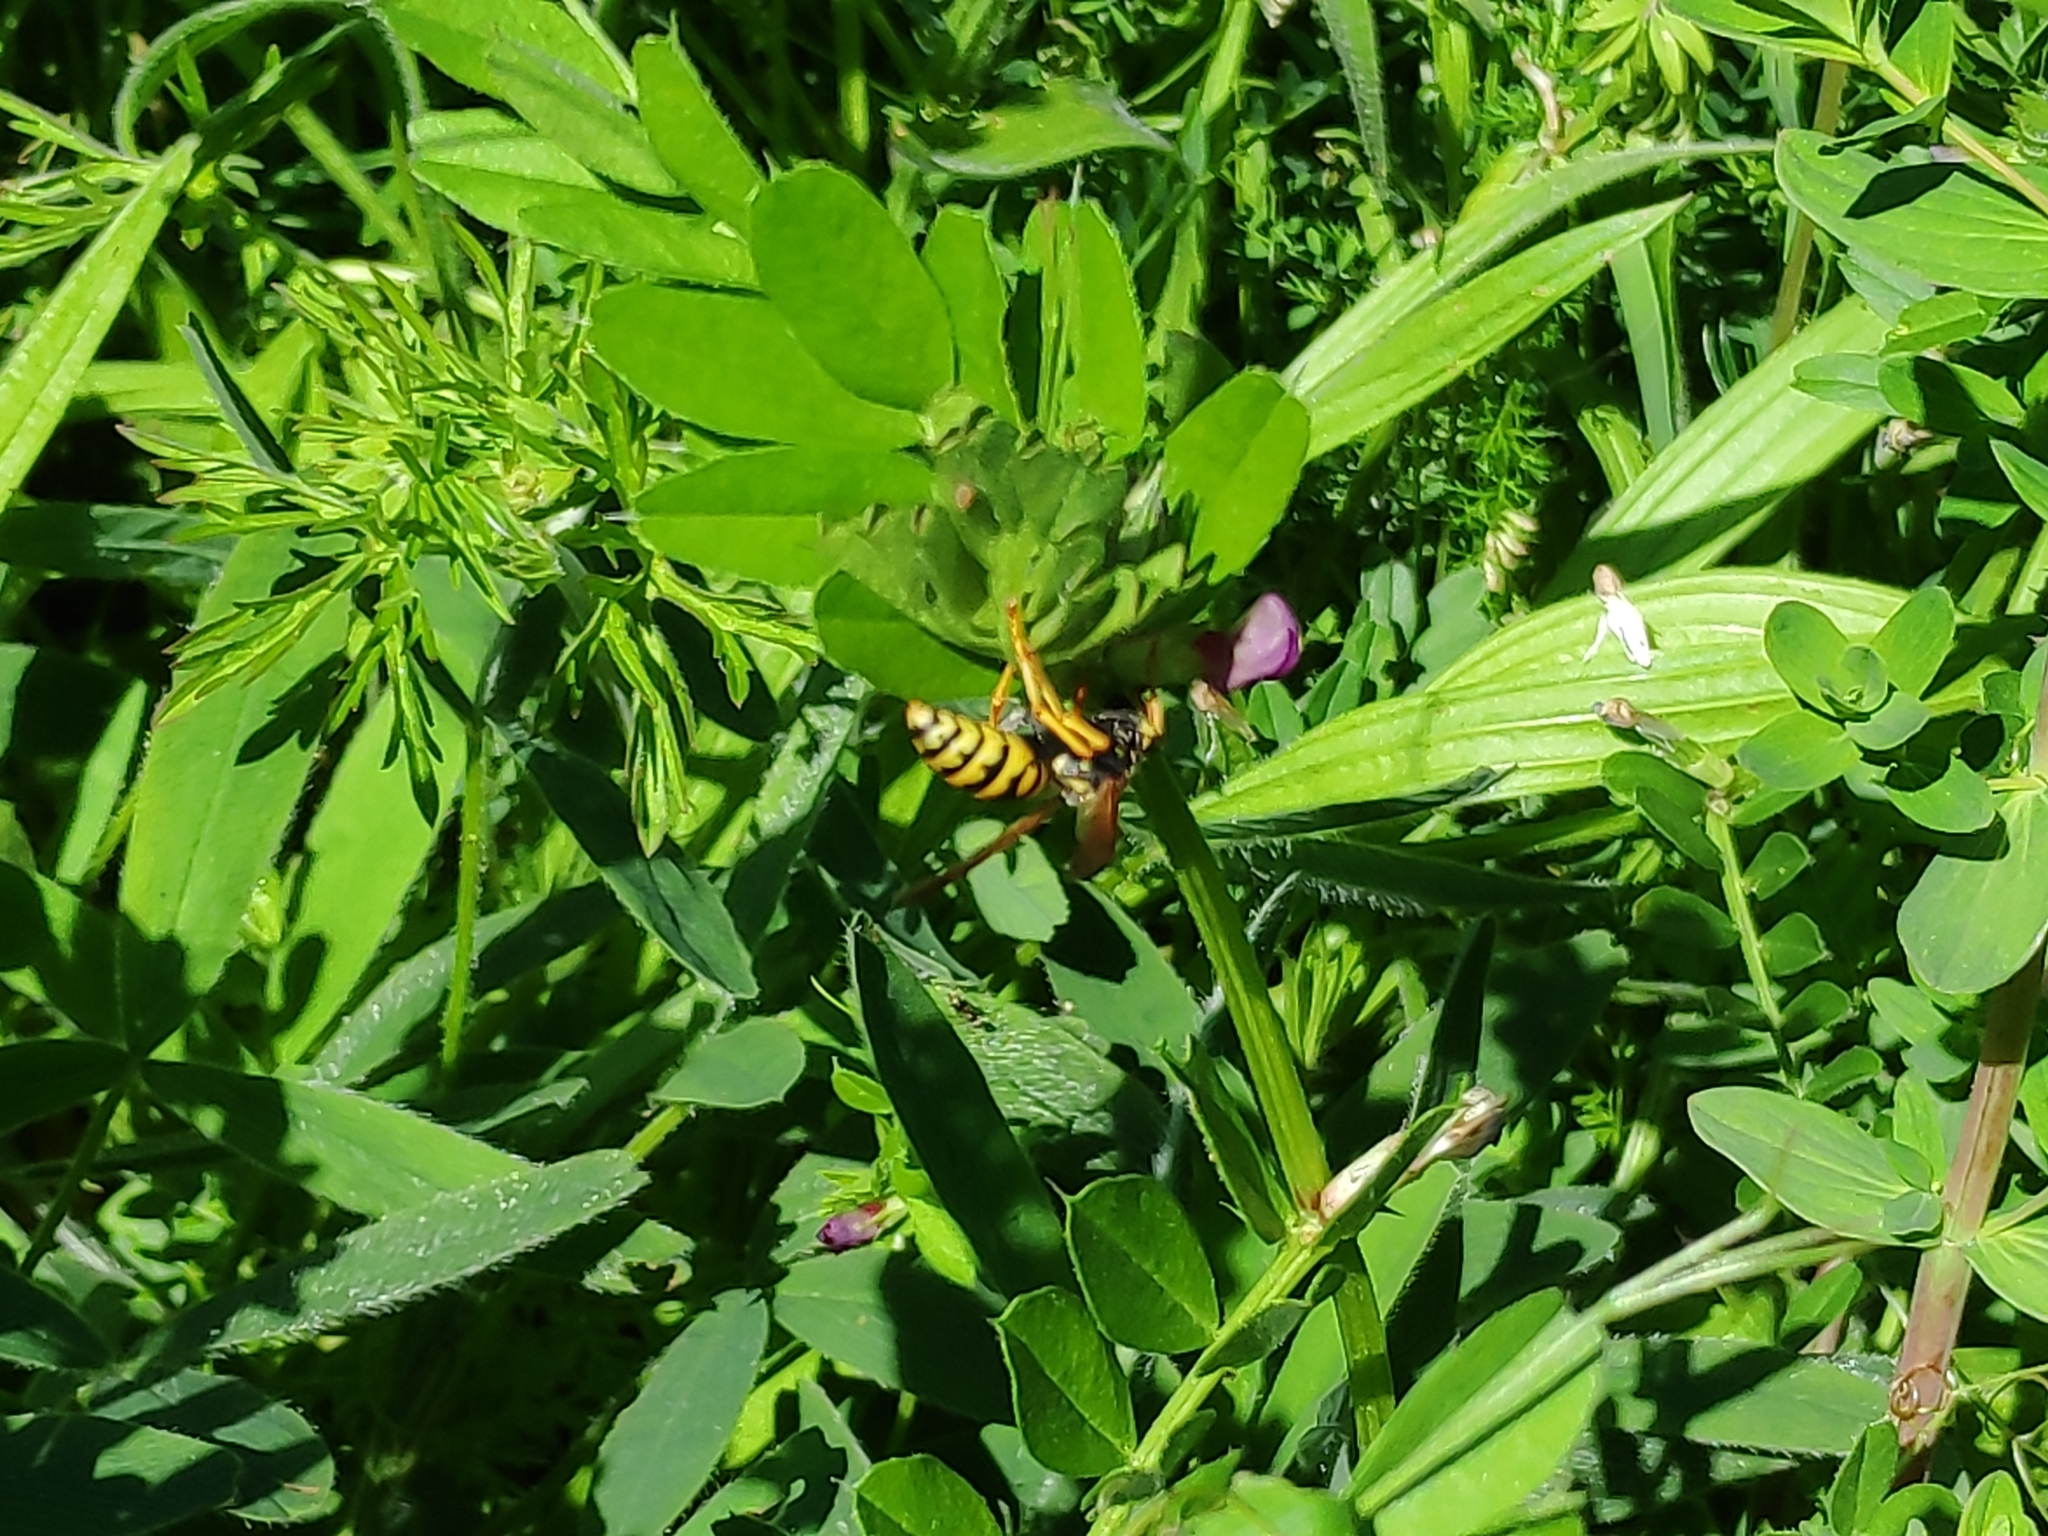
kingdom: Animalia
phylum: Arthropoda
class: Insecta
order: Hymenoptera
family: Eumenidae
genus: Polistes
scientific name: Polistes dominula
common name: Paper wasp
